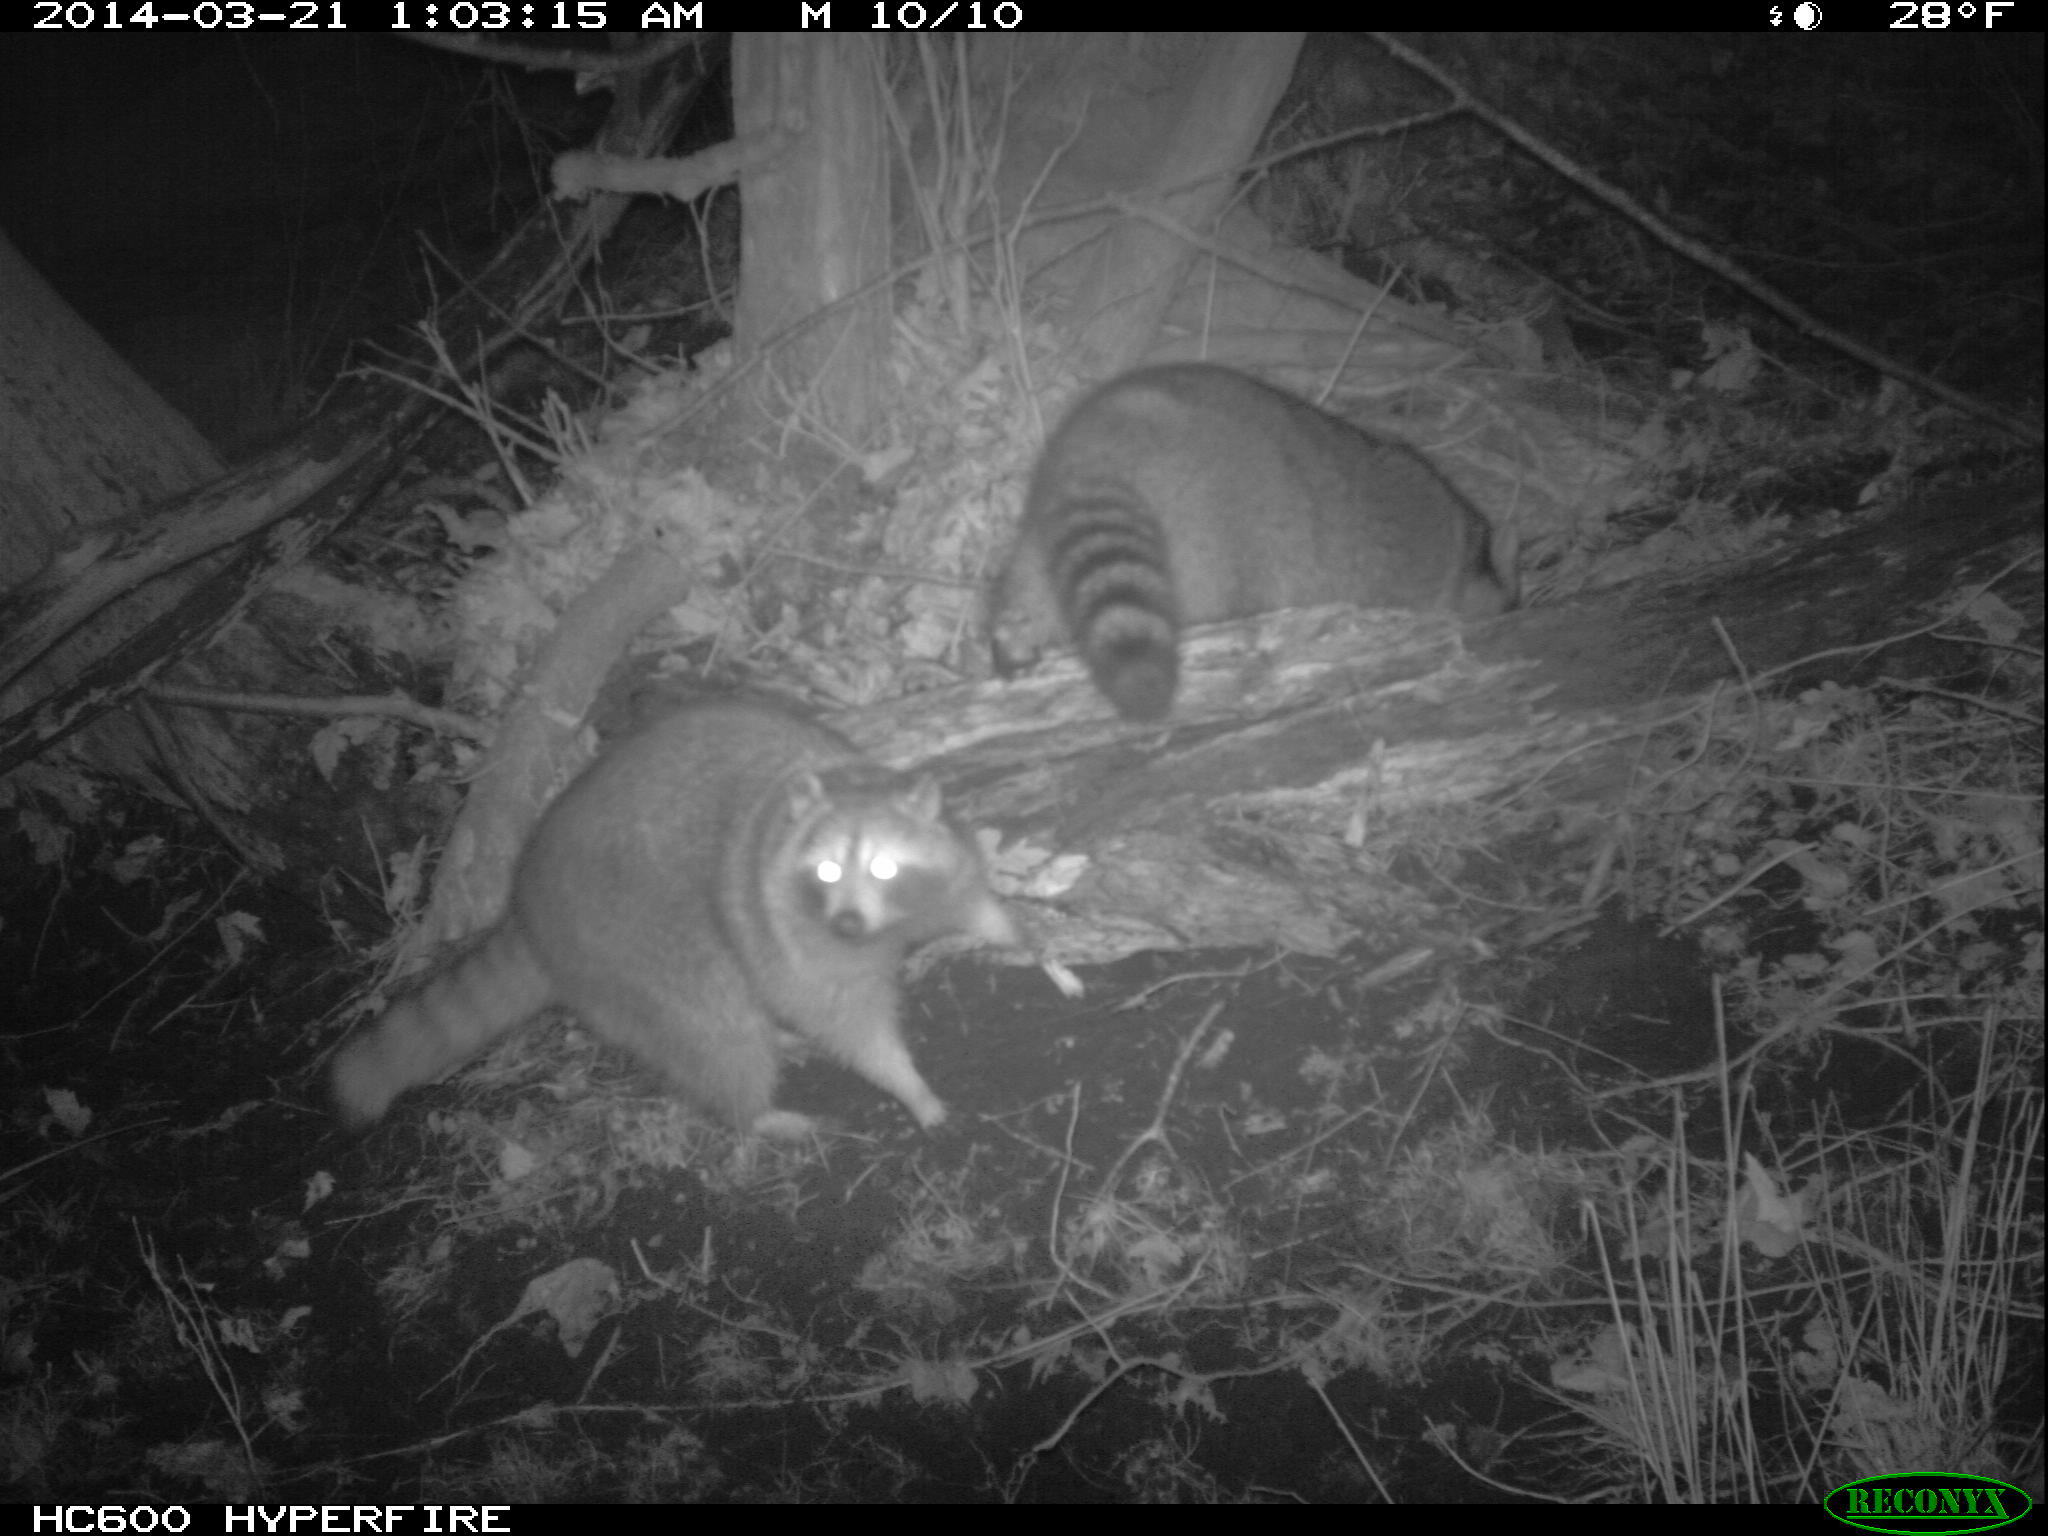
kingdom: Animalia
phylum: Chordata
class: Mammalia
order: Carnivora
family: Procyonidae
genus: Procyon
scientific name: Procyon lotor
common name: Raccoon
